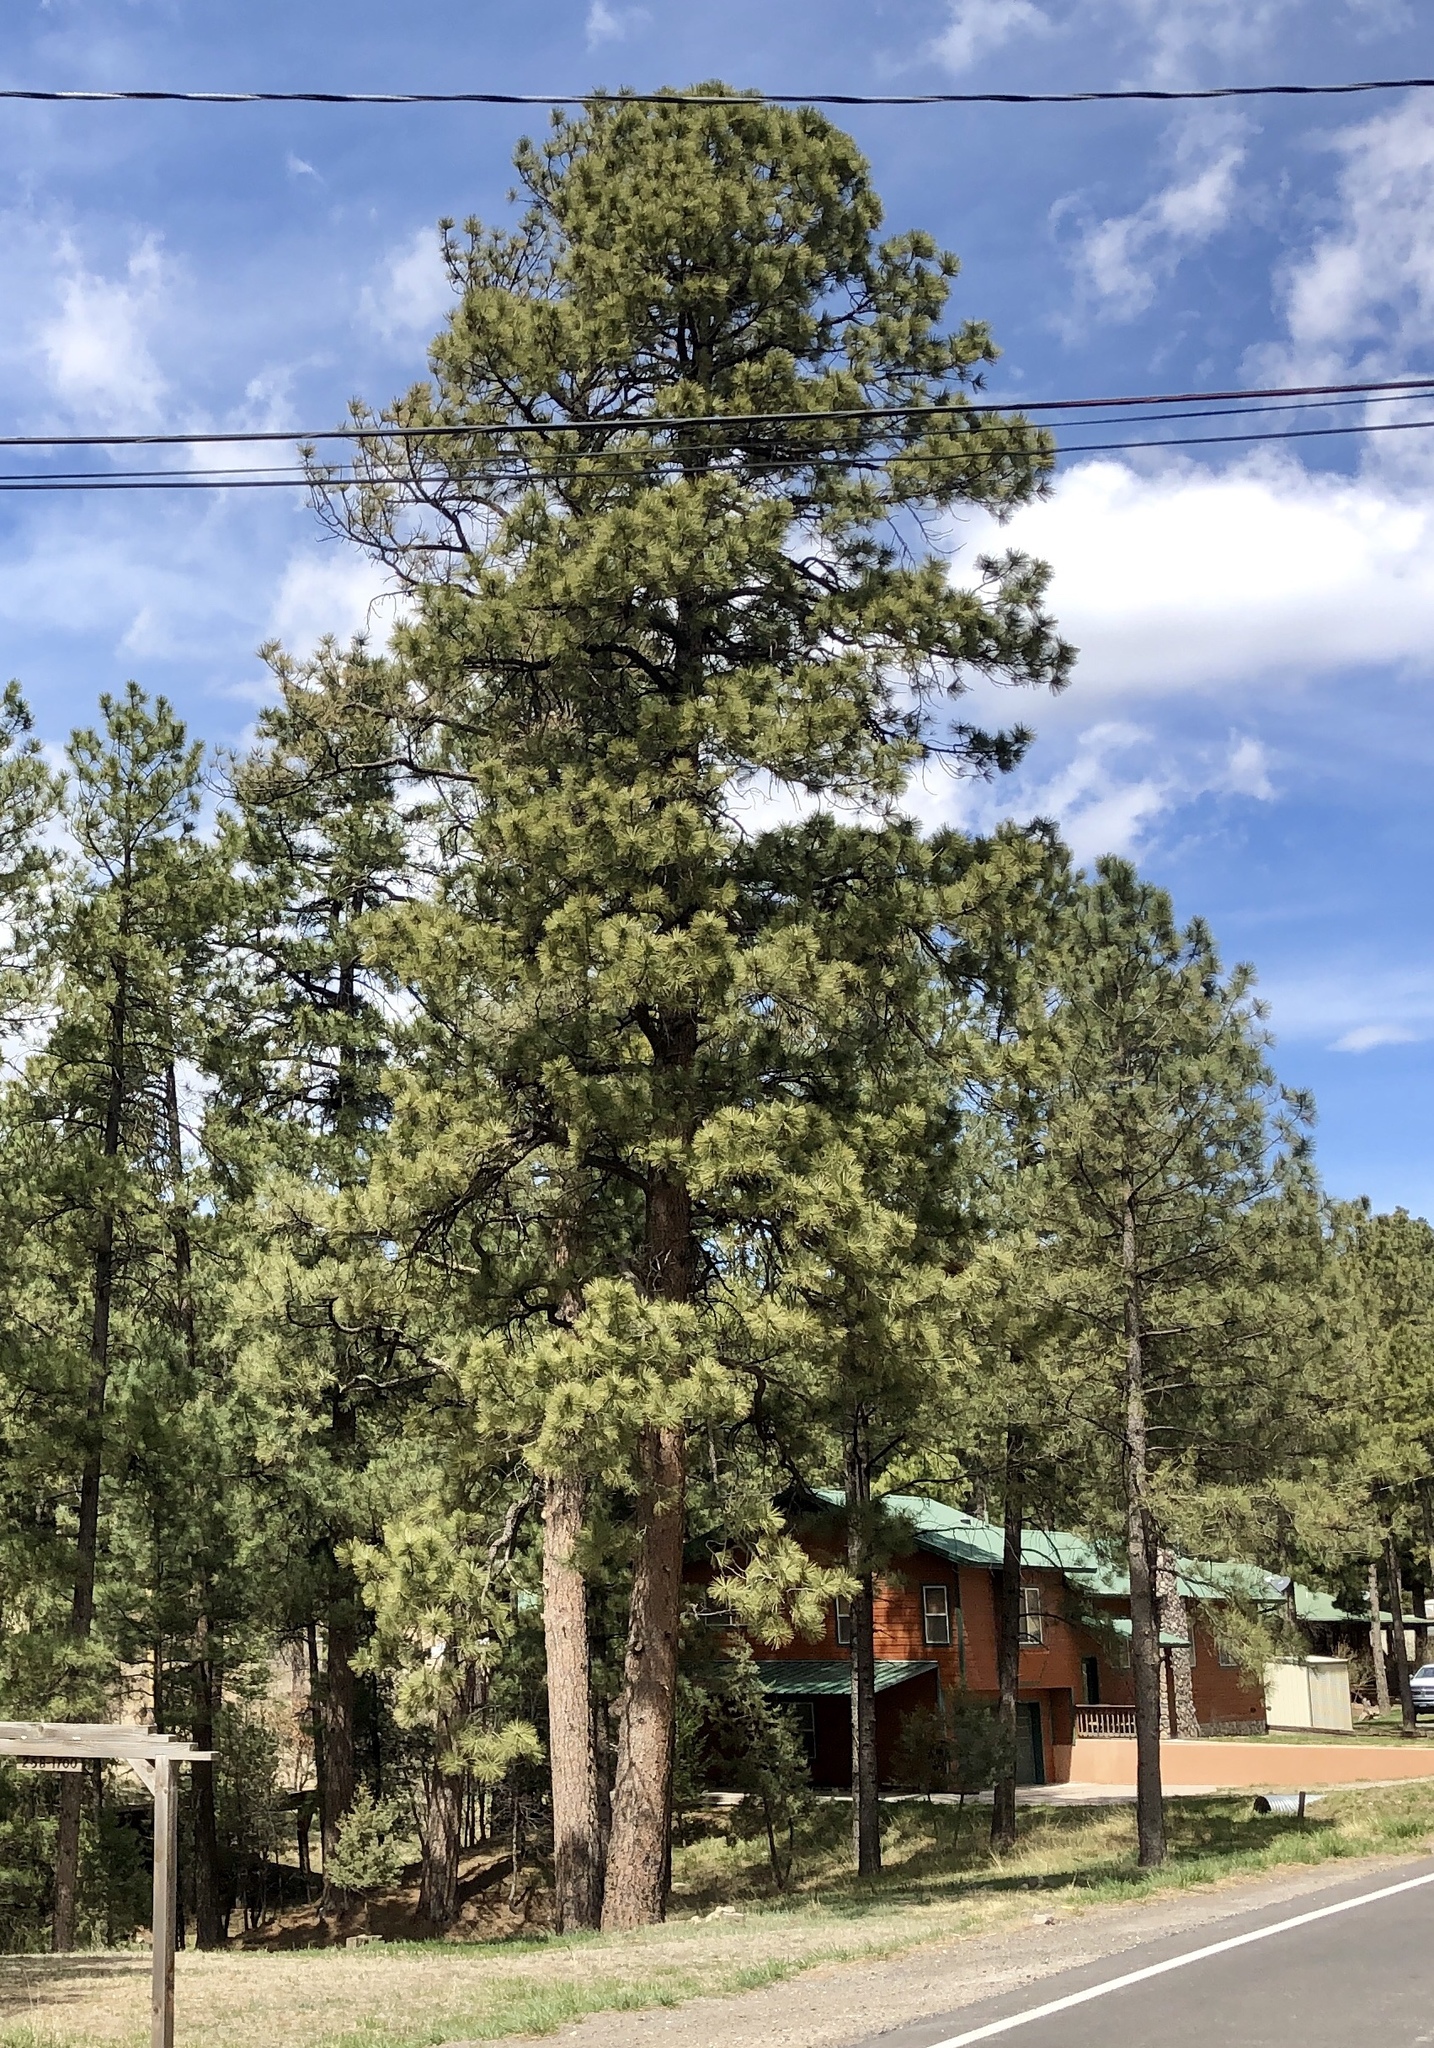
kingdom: Plantae
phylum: Tracheophyta
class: Pinopsida
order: Pinales
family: Pinaceae
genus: Pinus
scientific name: Pinus ponderosa
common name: Western yellow-pine
